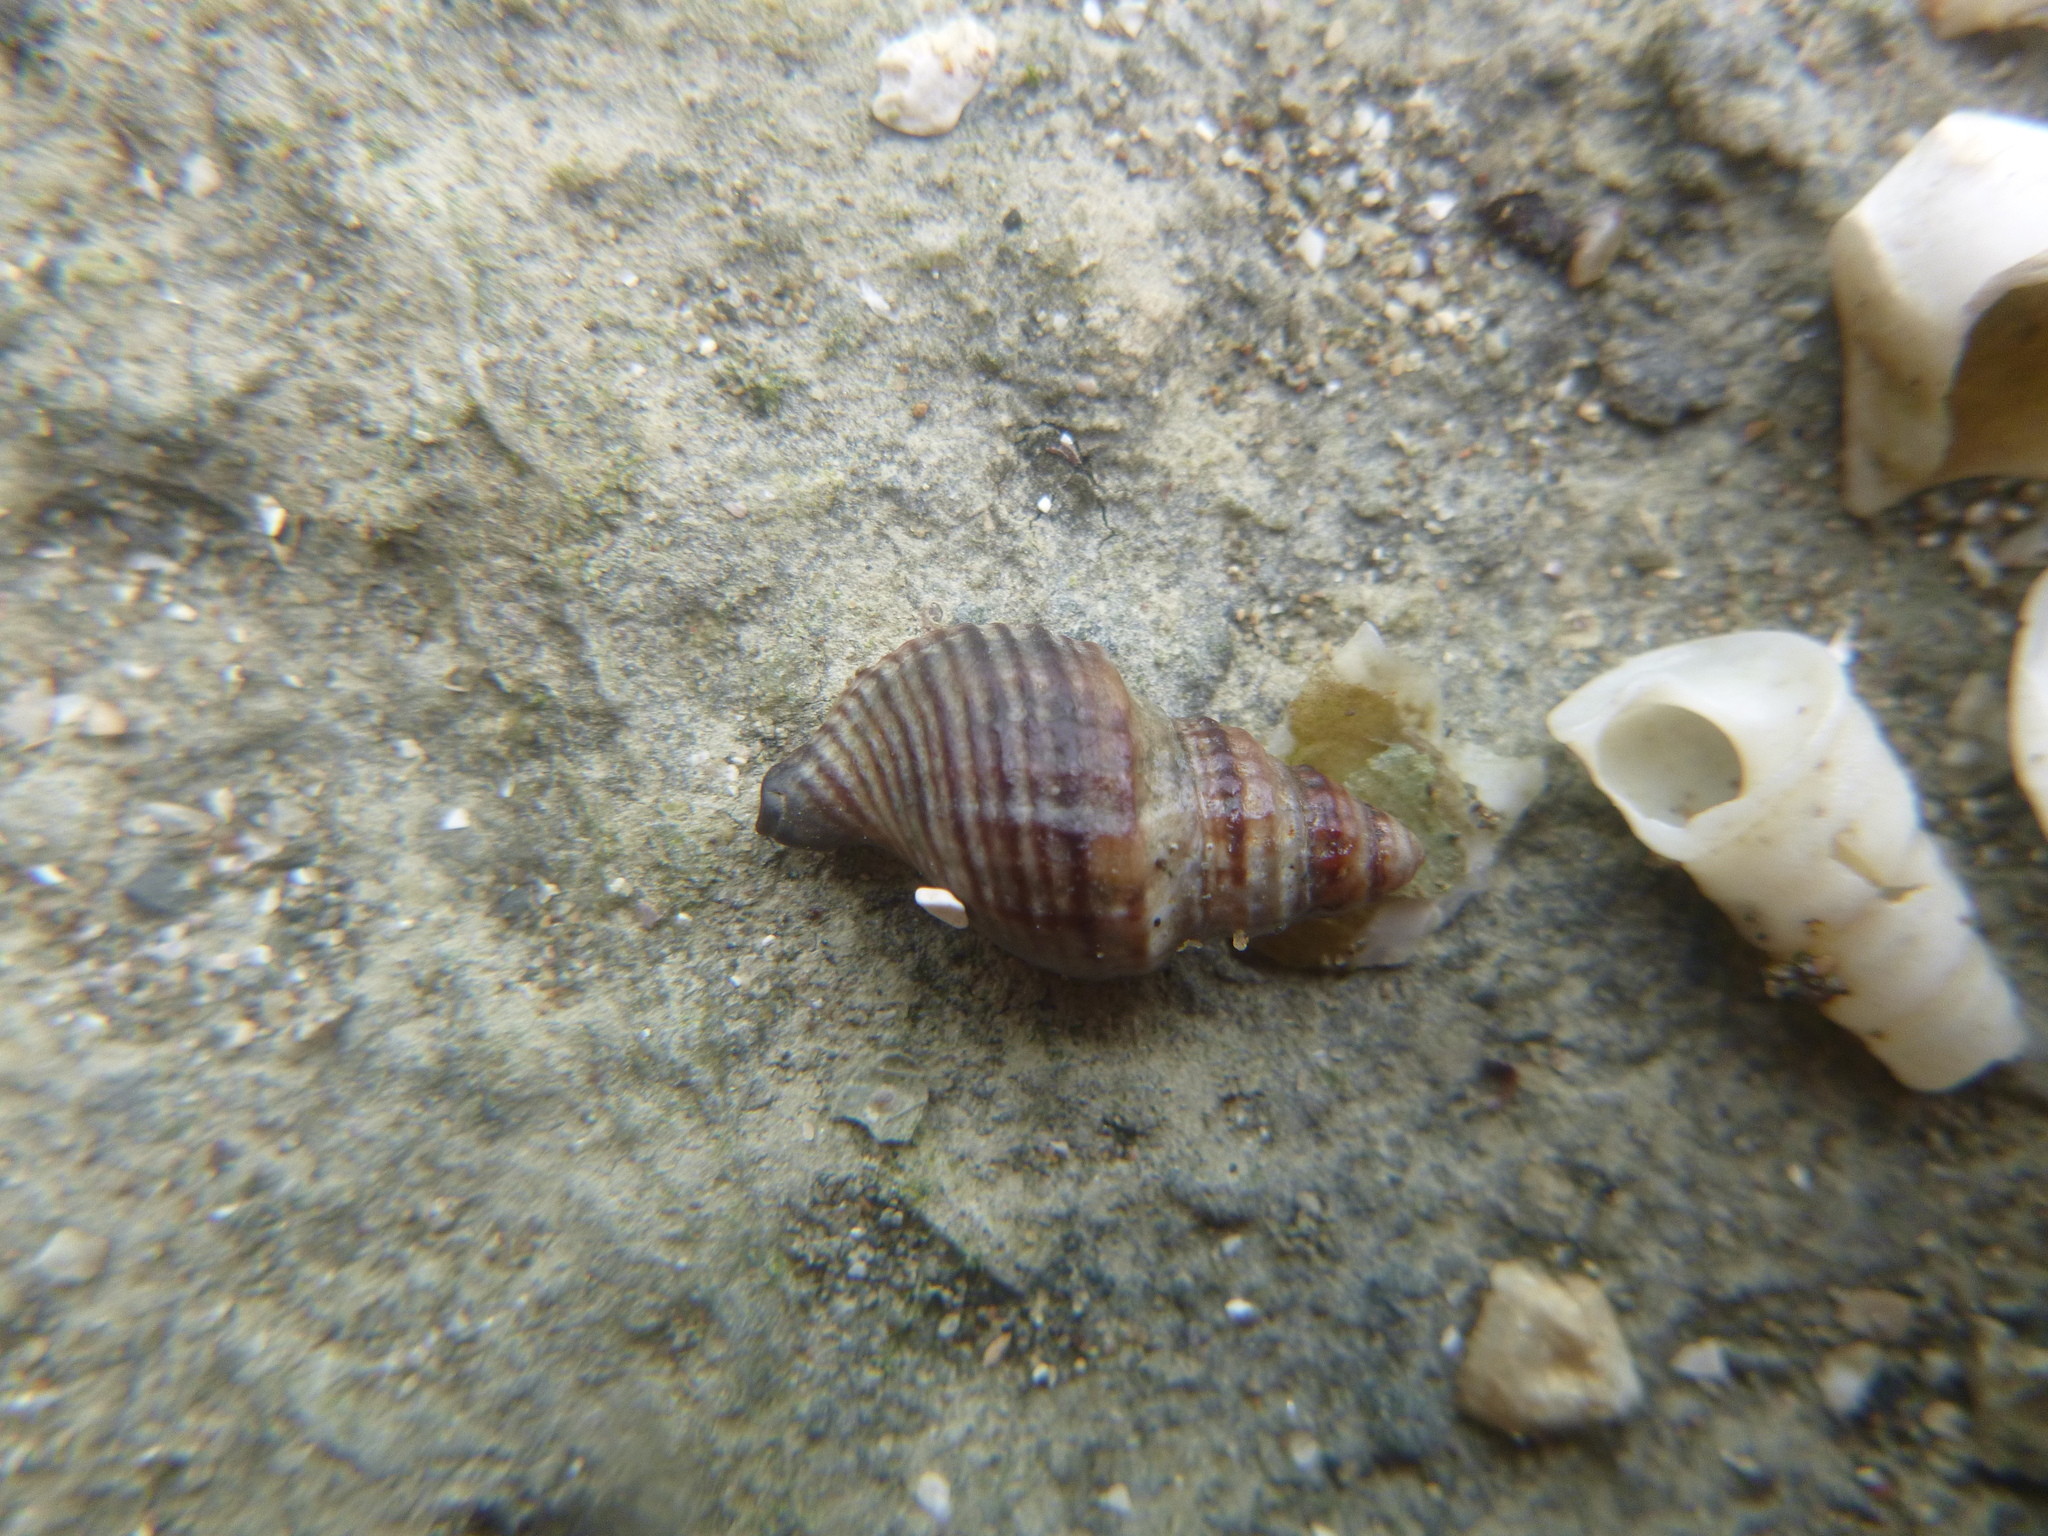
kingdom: Animalia
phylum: Mollusca
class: Gastropoda
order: Neogastropoda
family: Muricidae
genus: Xymene
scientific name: Xymene plebeius
